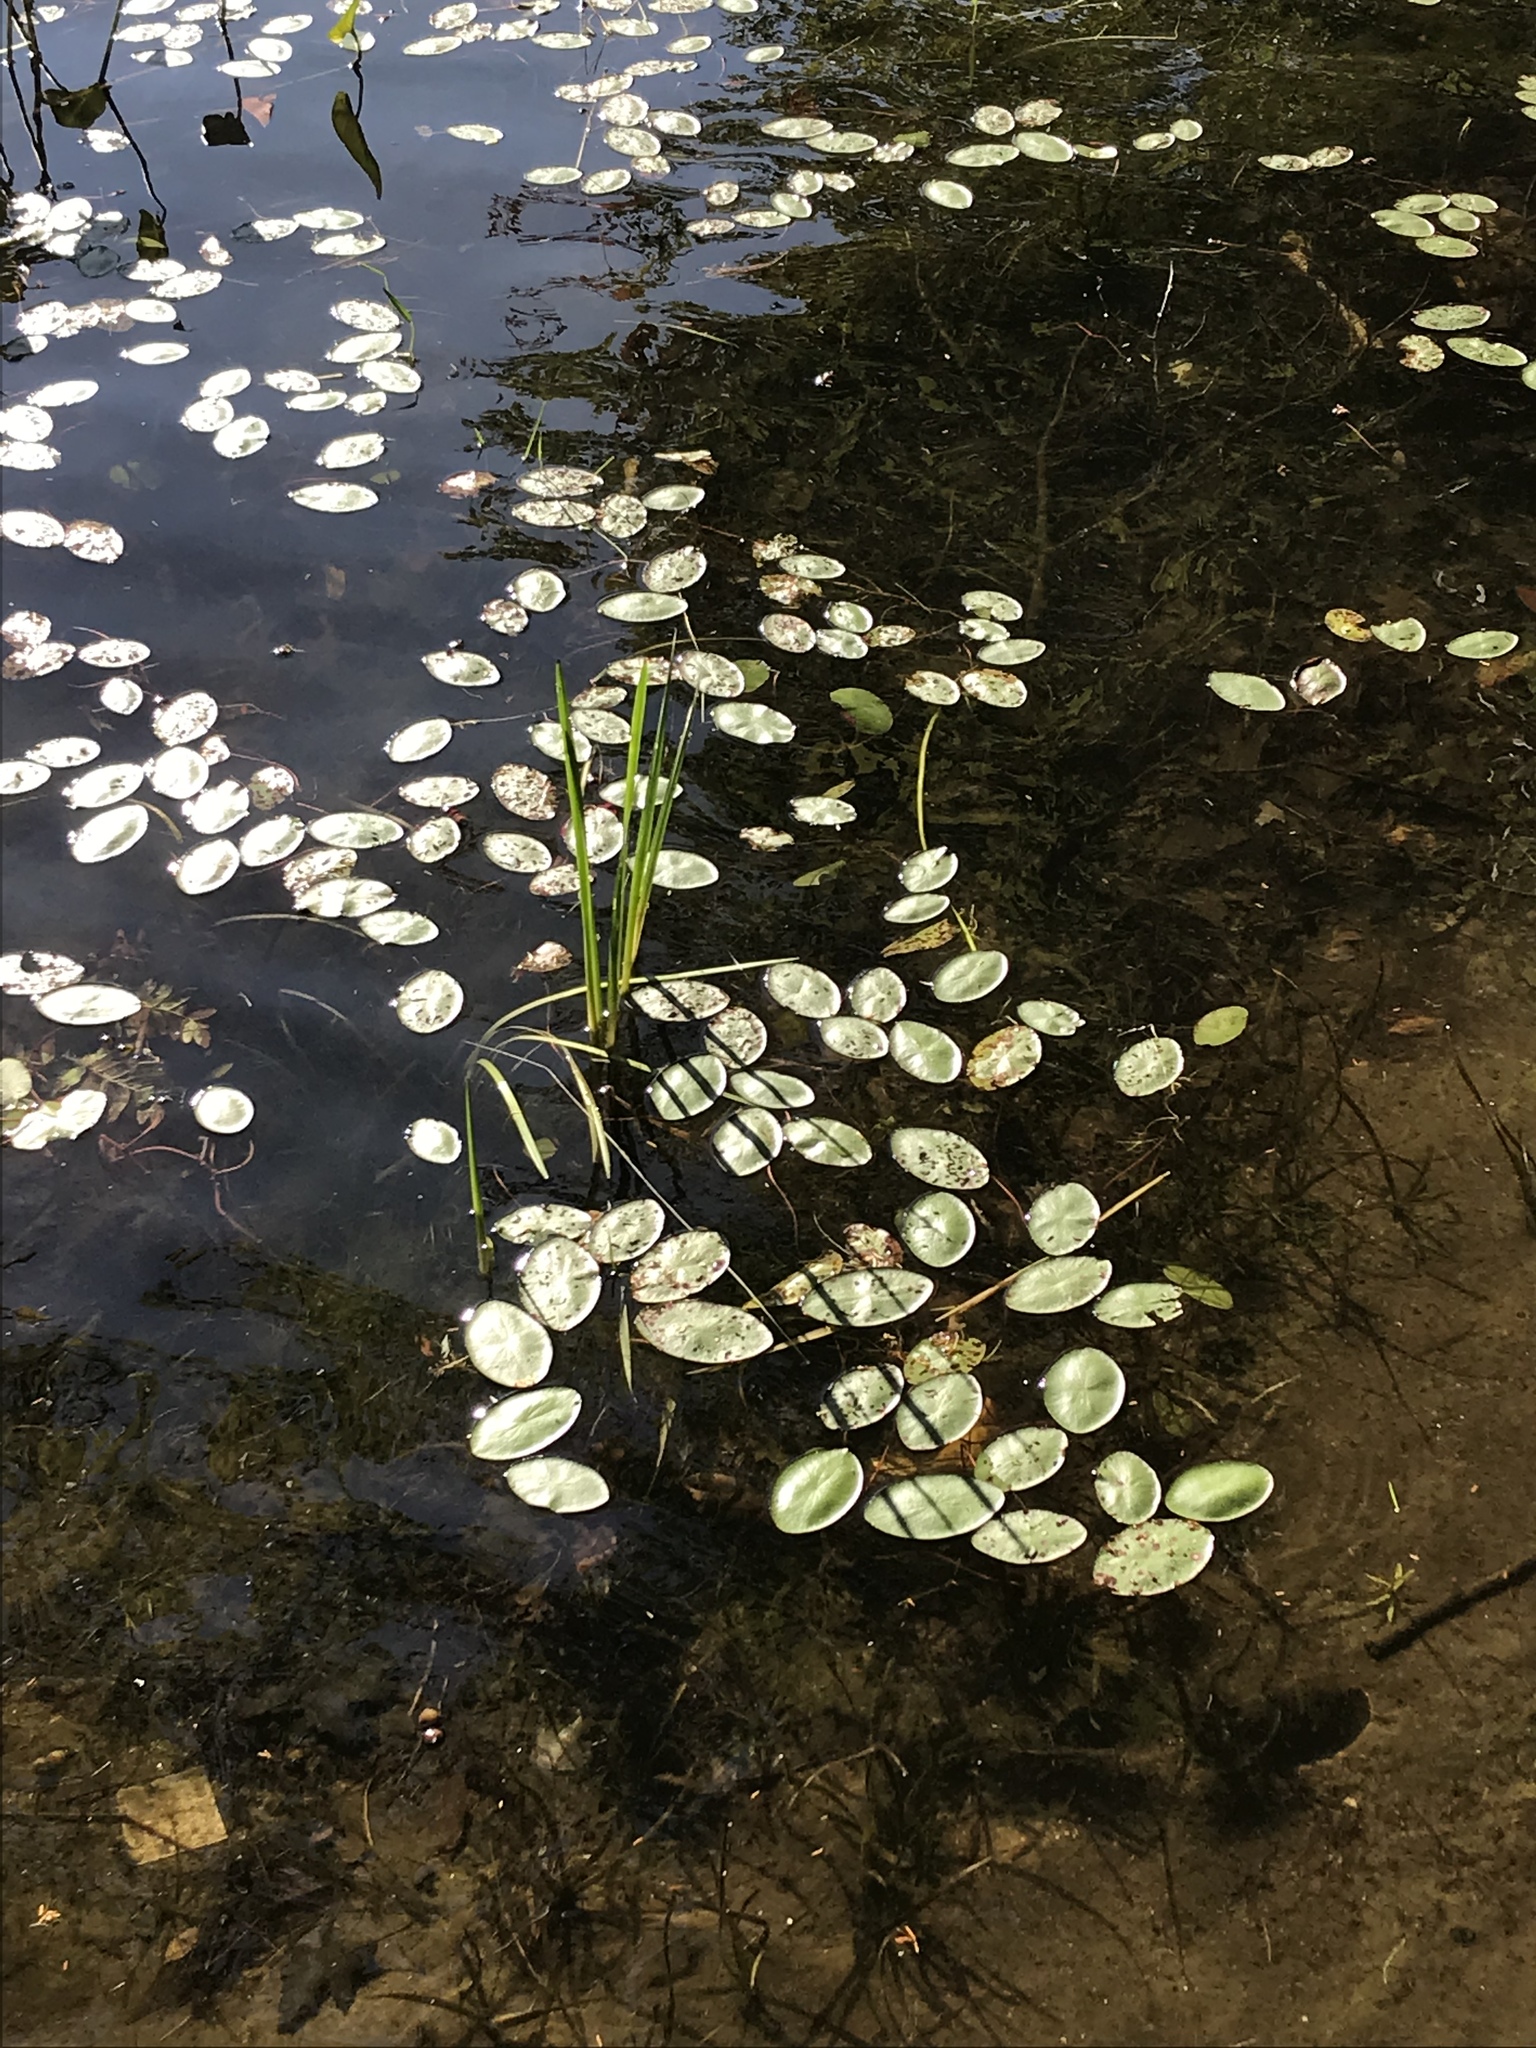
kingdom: Plantae
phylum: Tracheophyta
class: Magnoliopsida
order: Nymphaeales
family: Cabombaceae
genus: Brasenia
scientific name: Brasenia schreberi
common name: Water-shield
